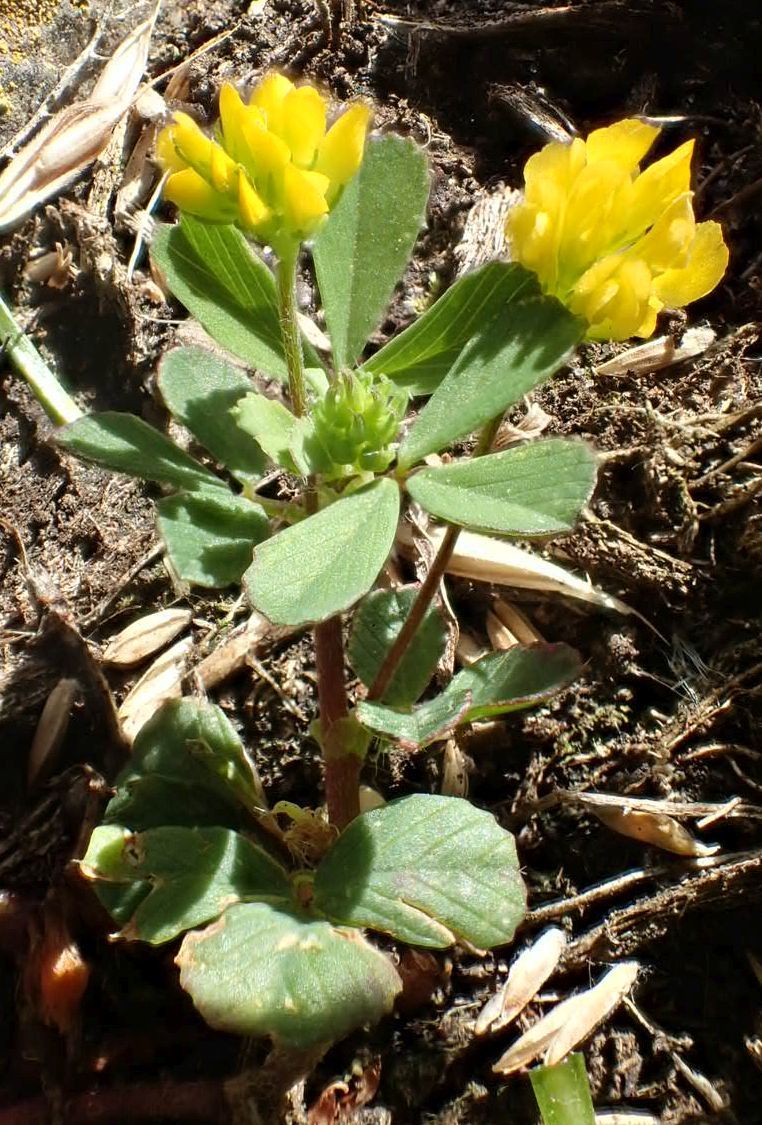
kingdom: Plantae
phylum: Tracheophyta
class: Magnoliopsida
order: Fabales
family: Fabaceae
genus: Trifolium
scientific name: Trifolium dubium
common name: Suckling clover
